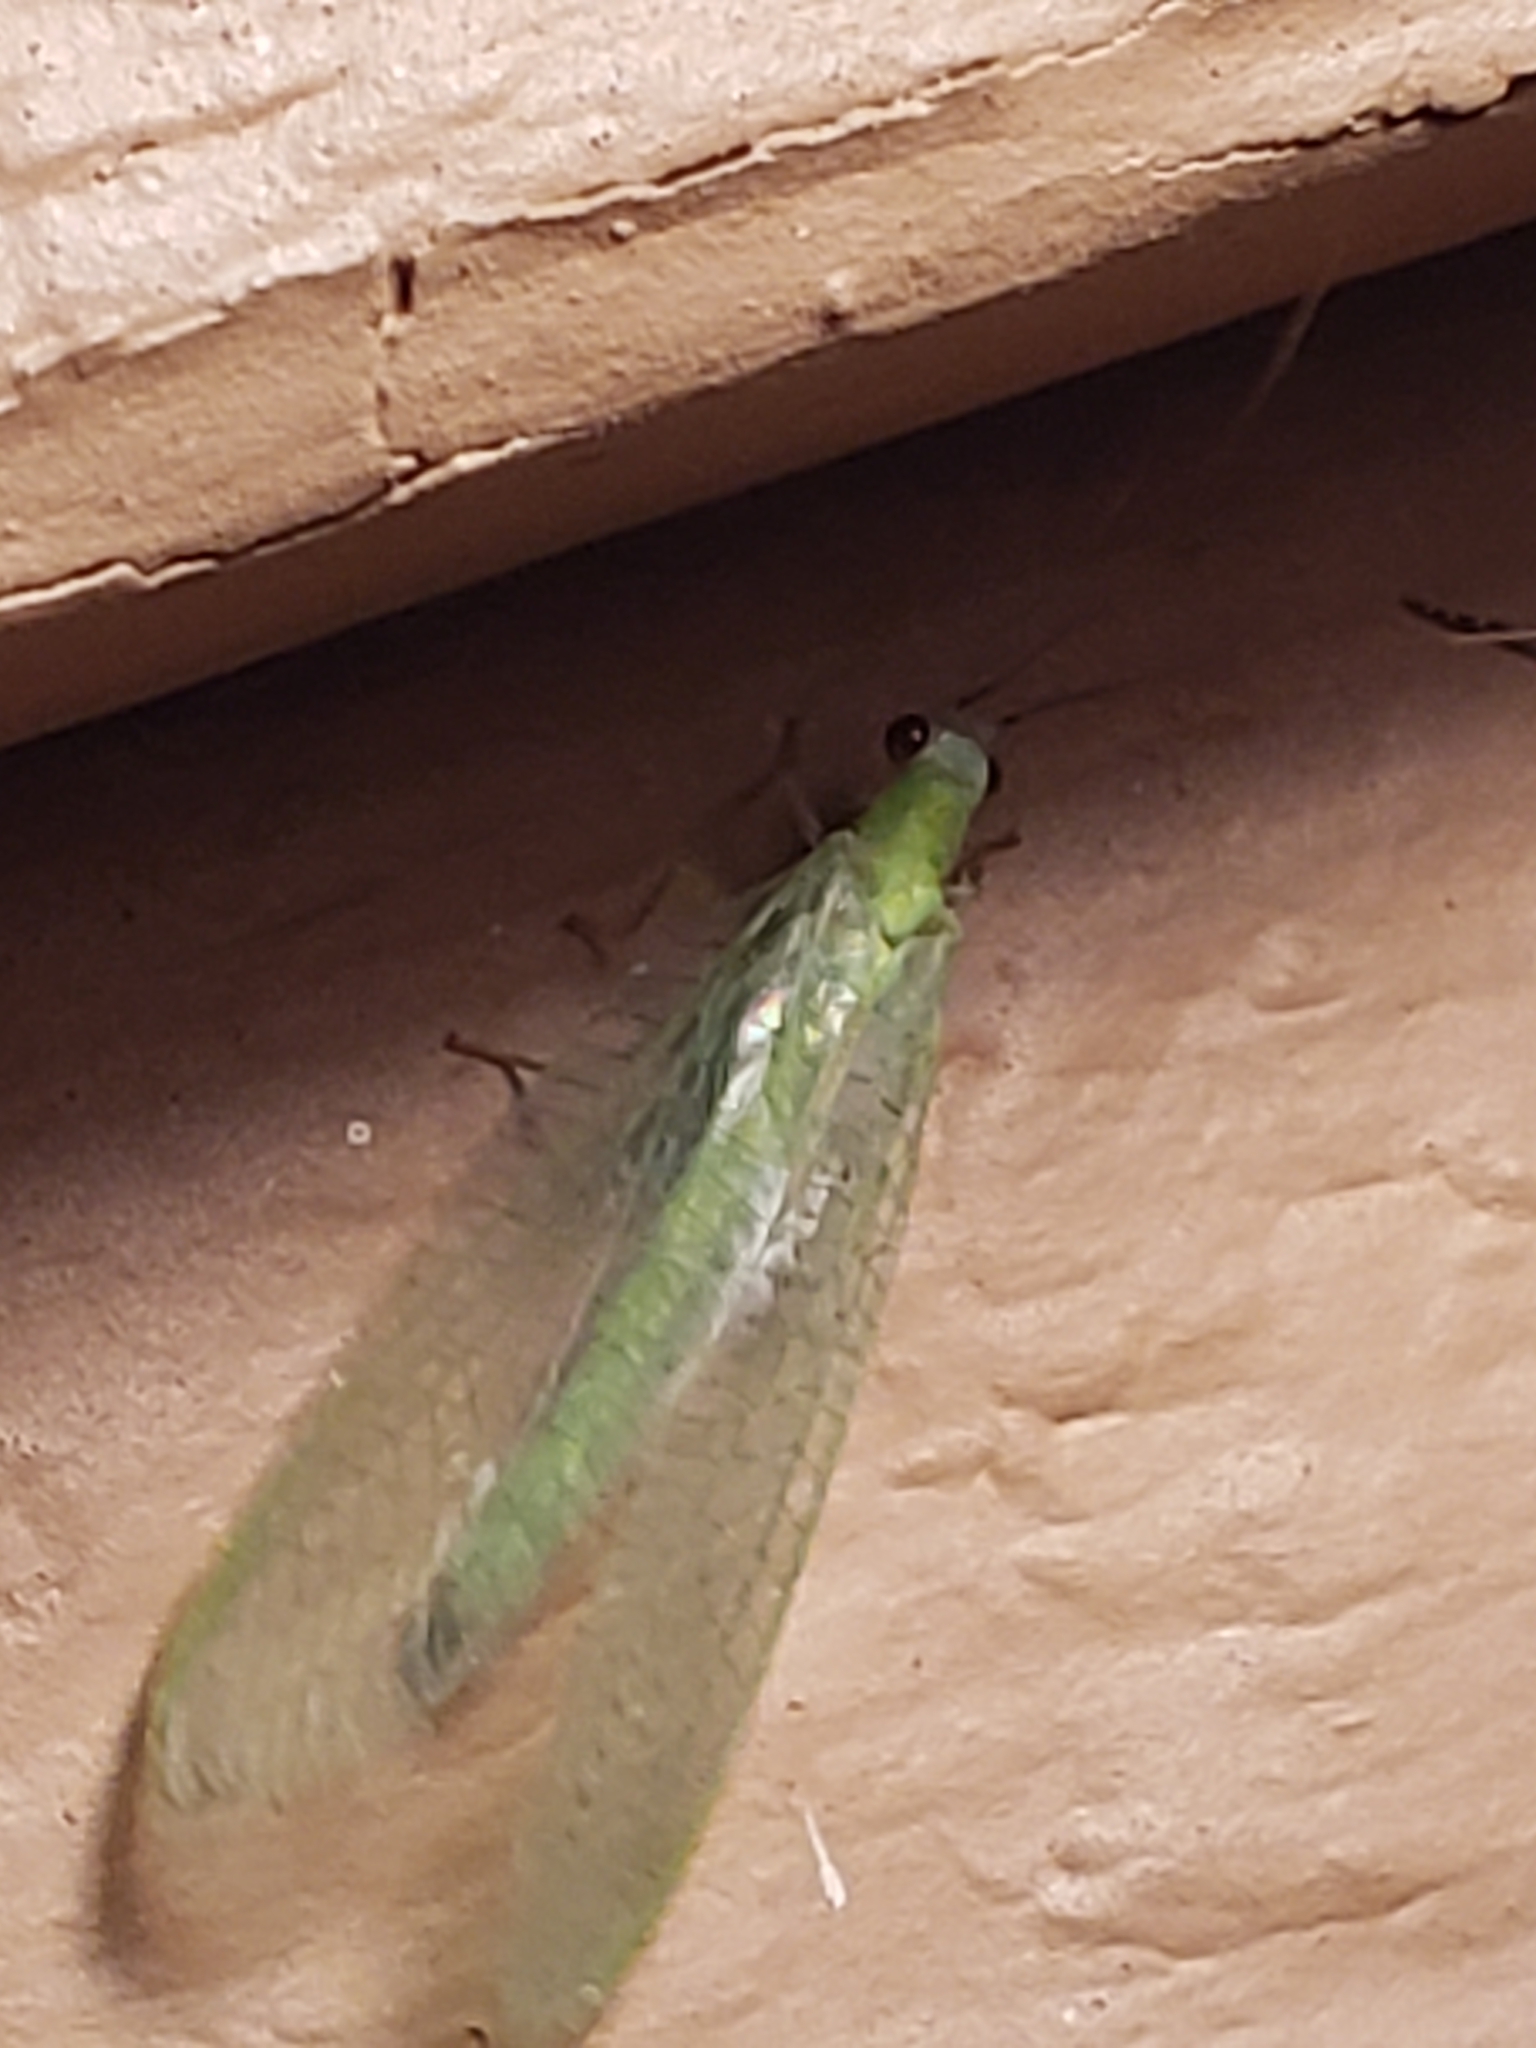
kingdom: Animalia
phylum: Arthropoda
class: Insecta
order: Neuroptera
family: Chrysopidae
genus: Chrysopa
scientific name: Chrysopa nigricornis
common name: Black-horned green lacewing
